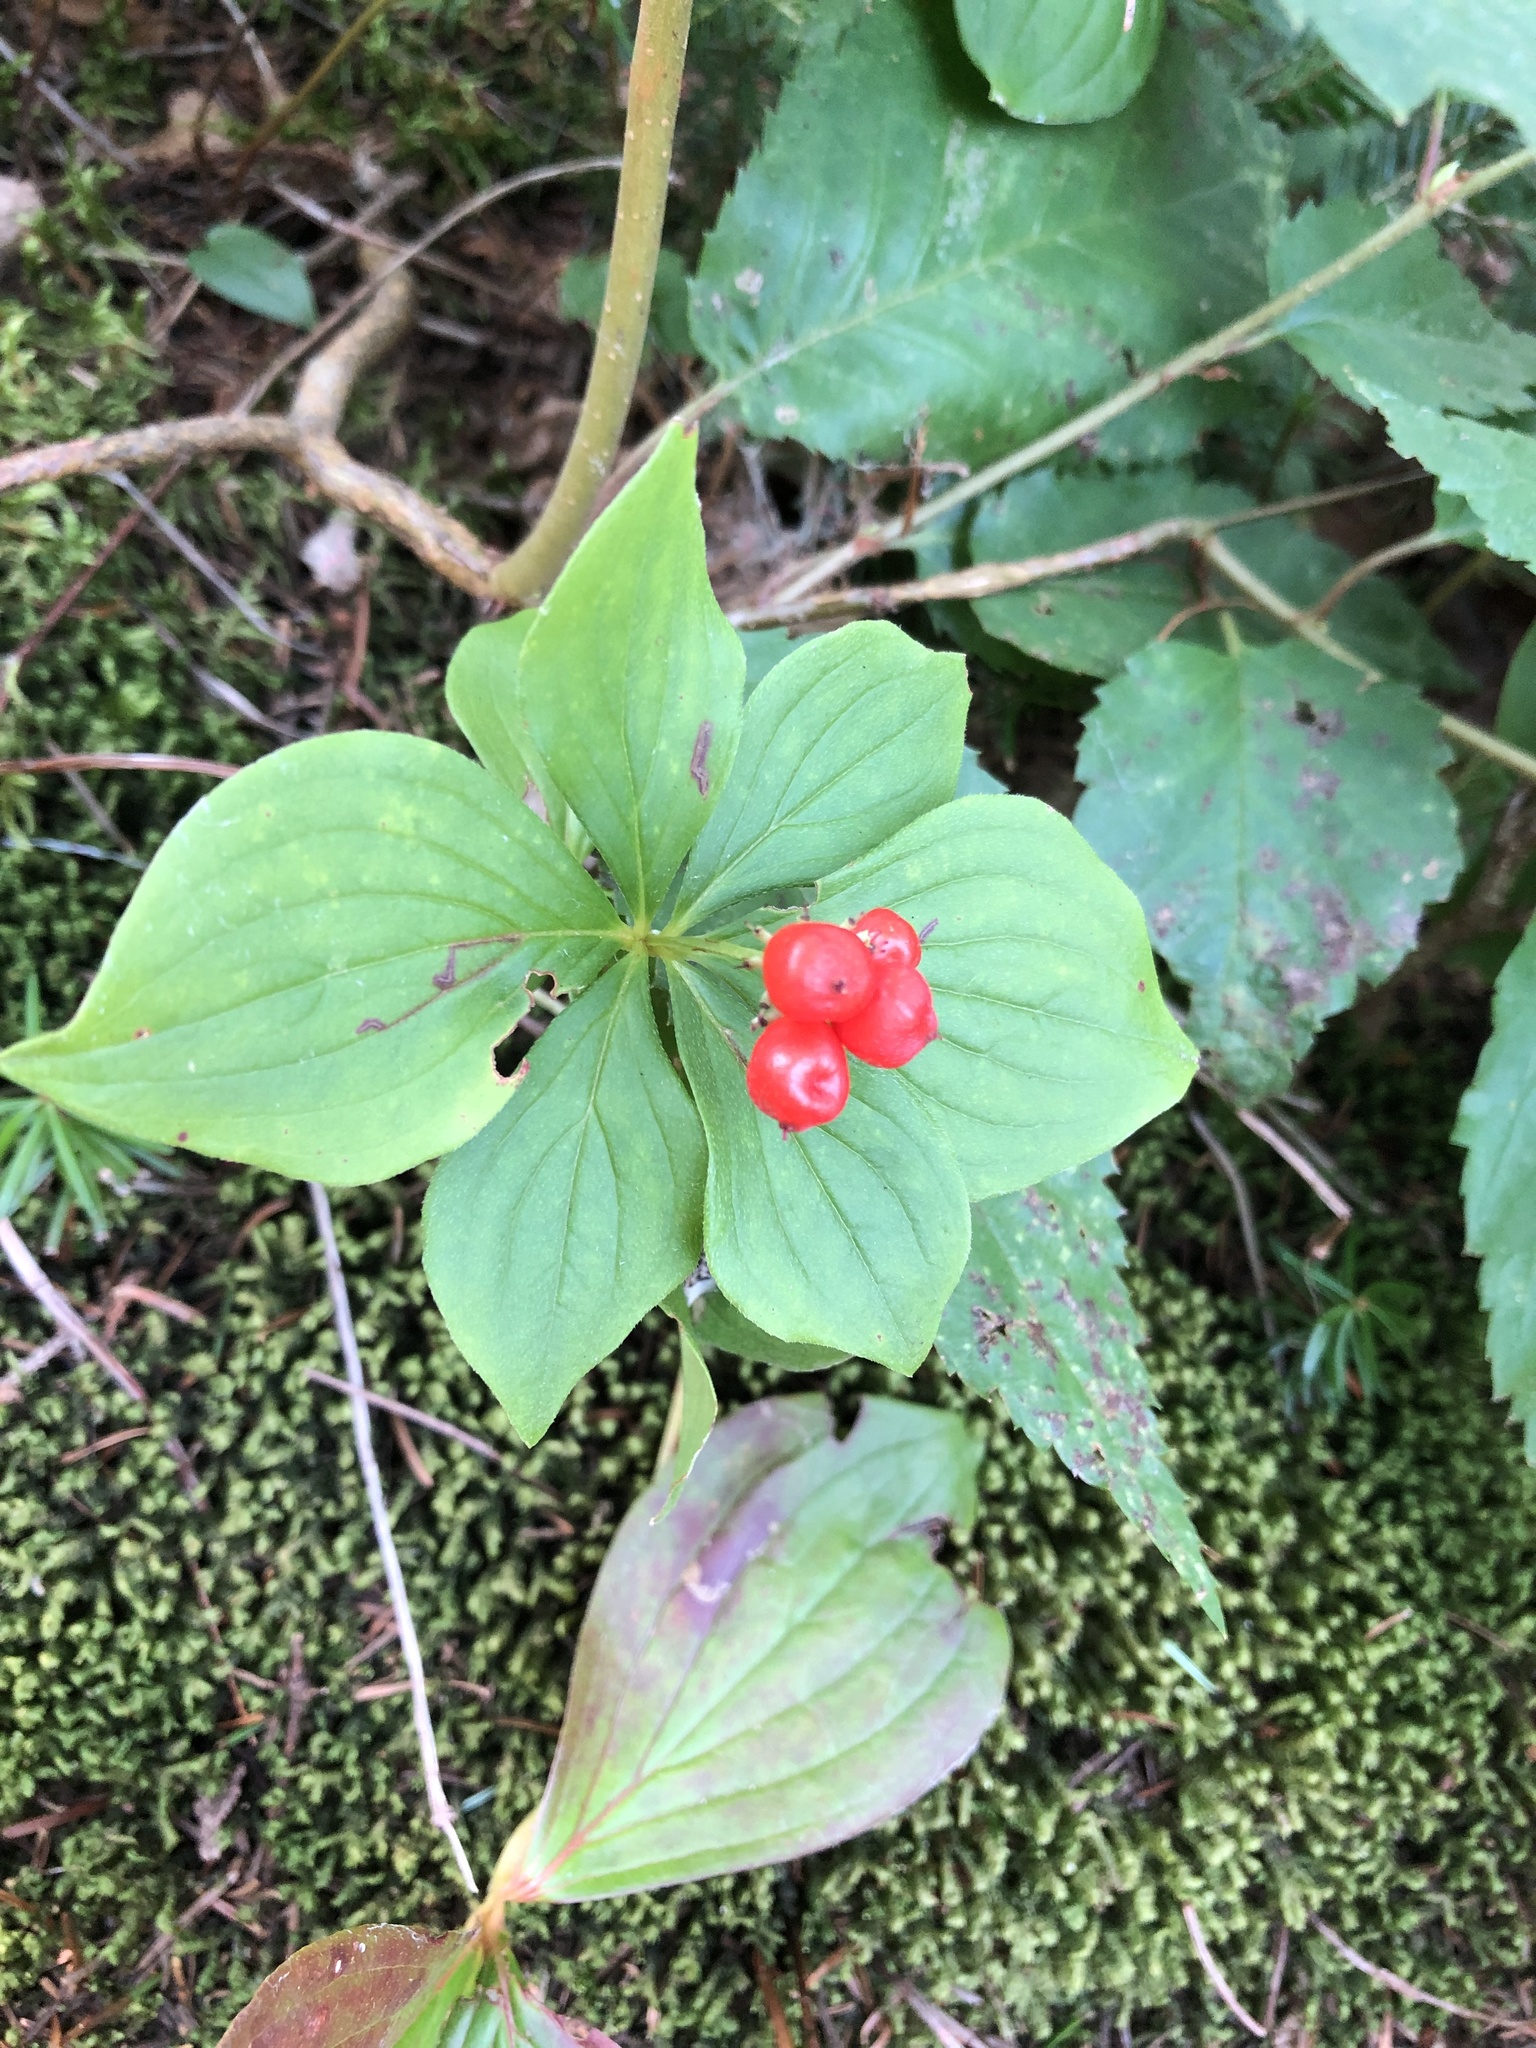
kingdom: Plantae
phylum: Tracheophyta
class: Magnoliopsida
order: Cornales
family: Cornaceae
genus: Cornus
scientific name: Cornus canadensis
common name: Creeping dogwood
